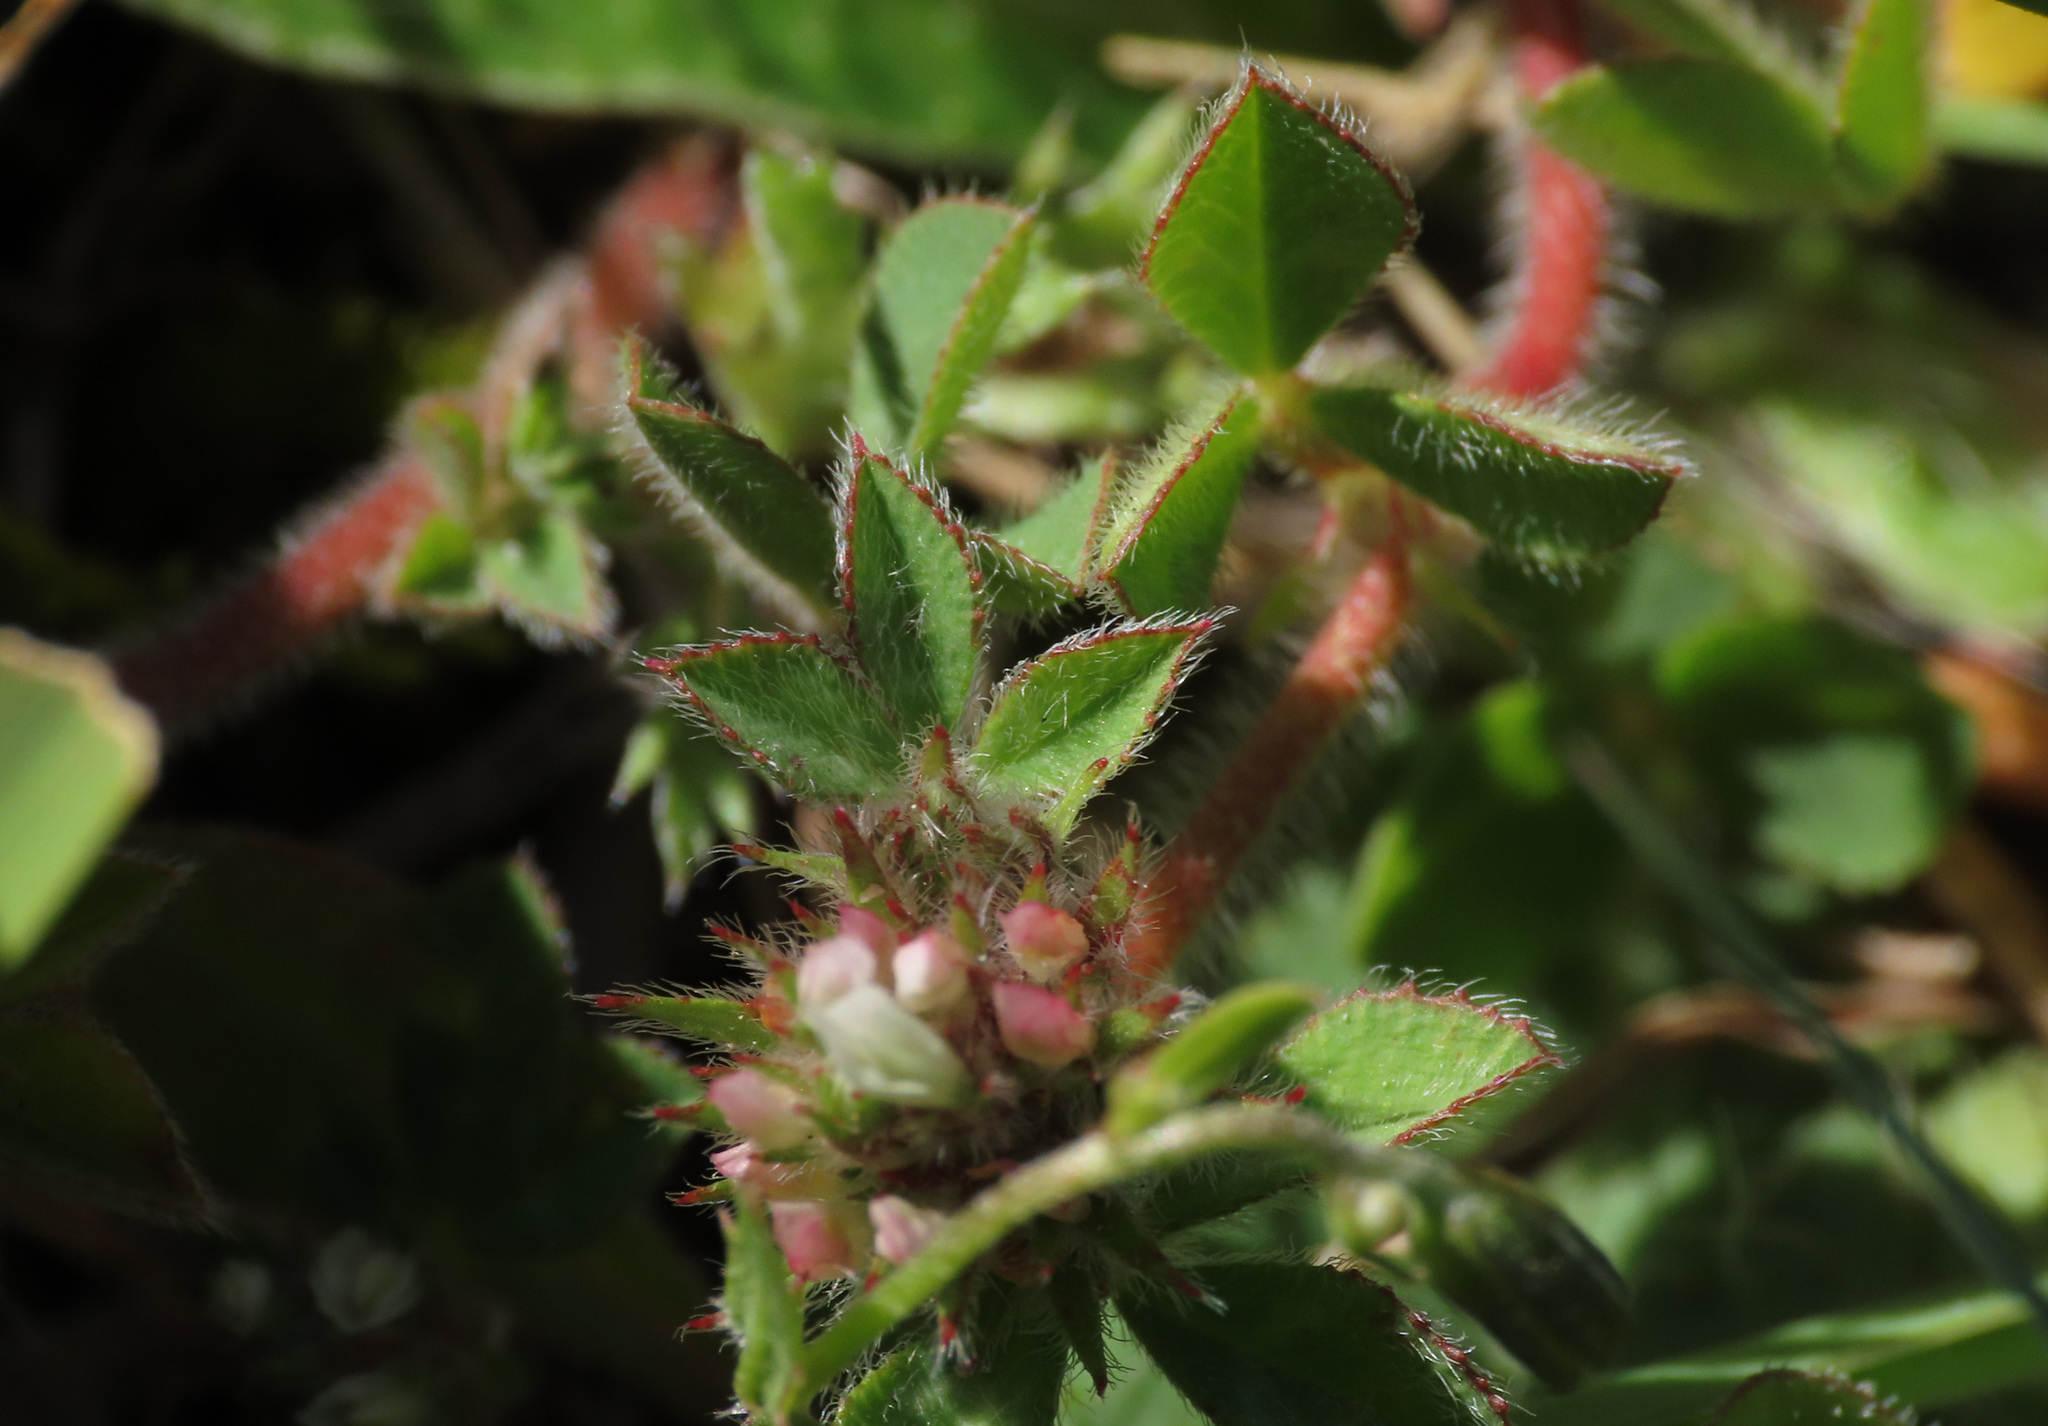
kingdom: Plantae
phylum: Tracheophyta
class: Magnoliopsida
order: Fabales
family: Fabaceae
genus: Trifolium
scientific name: Trifolium scabrum
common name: Rough clover
